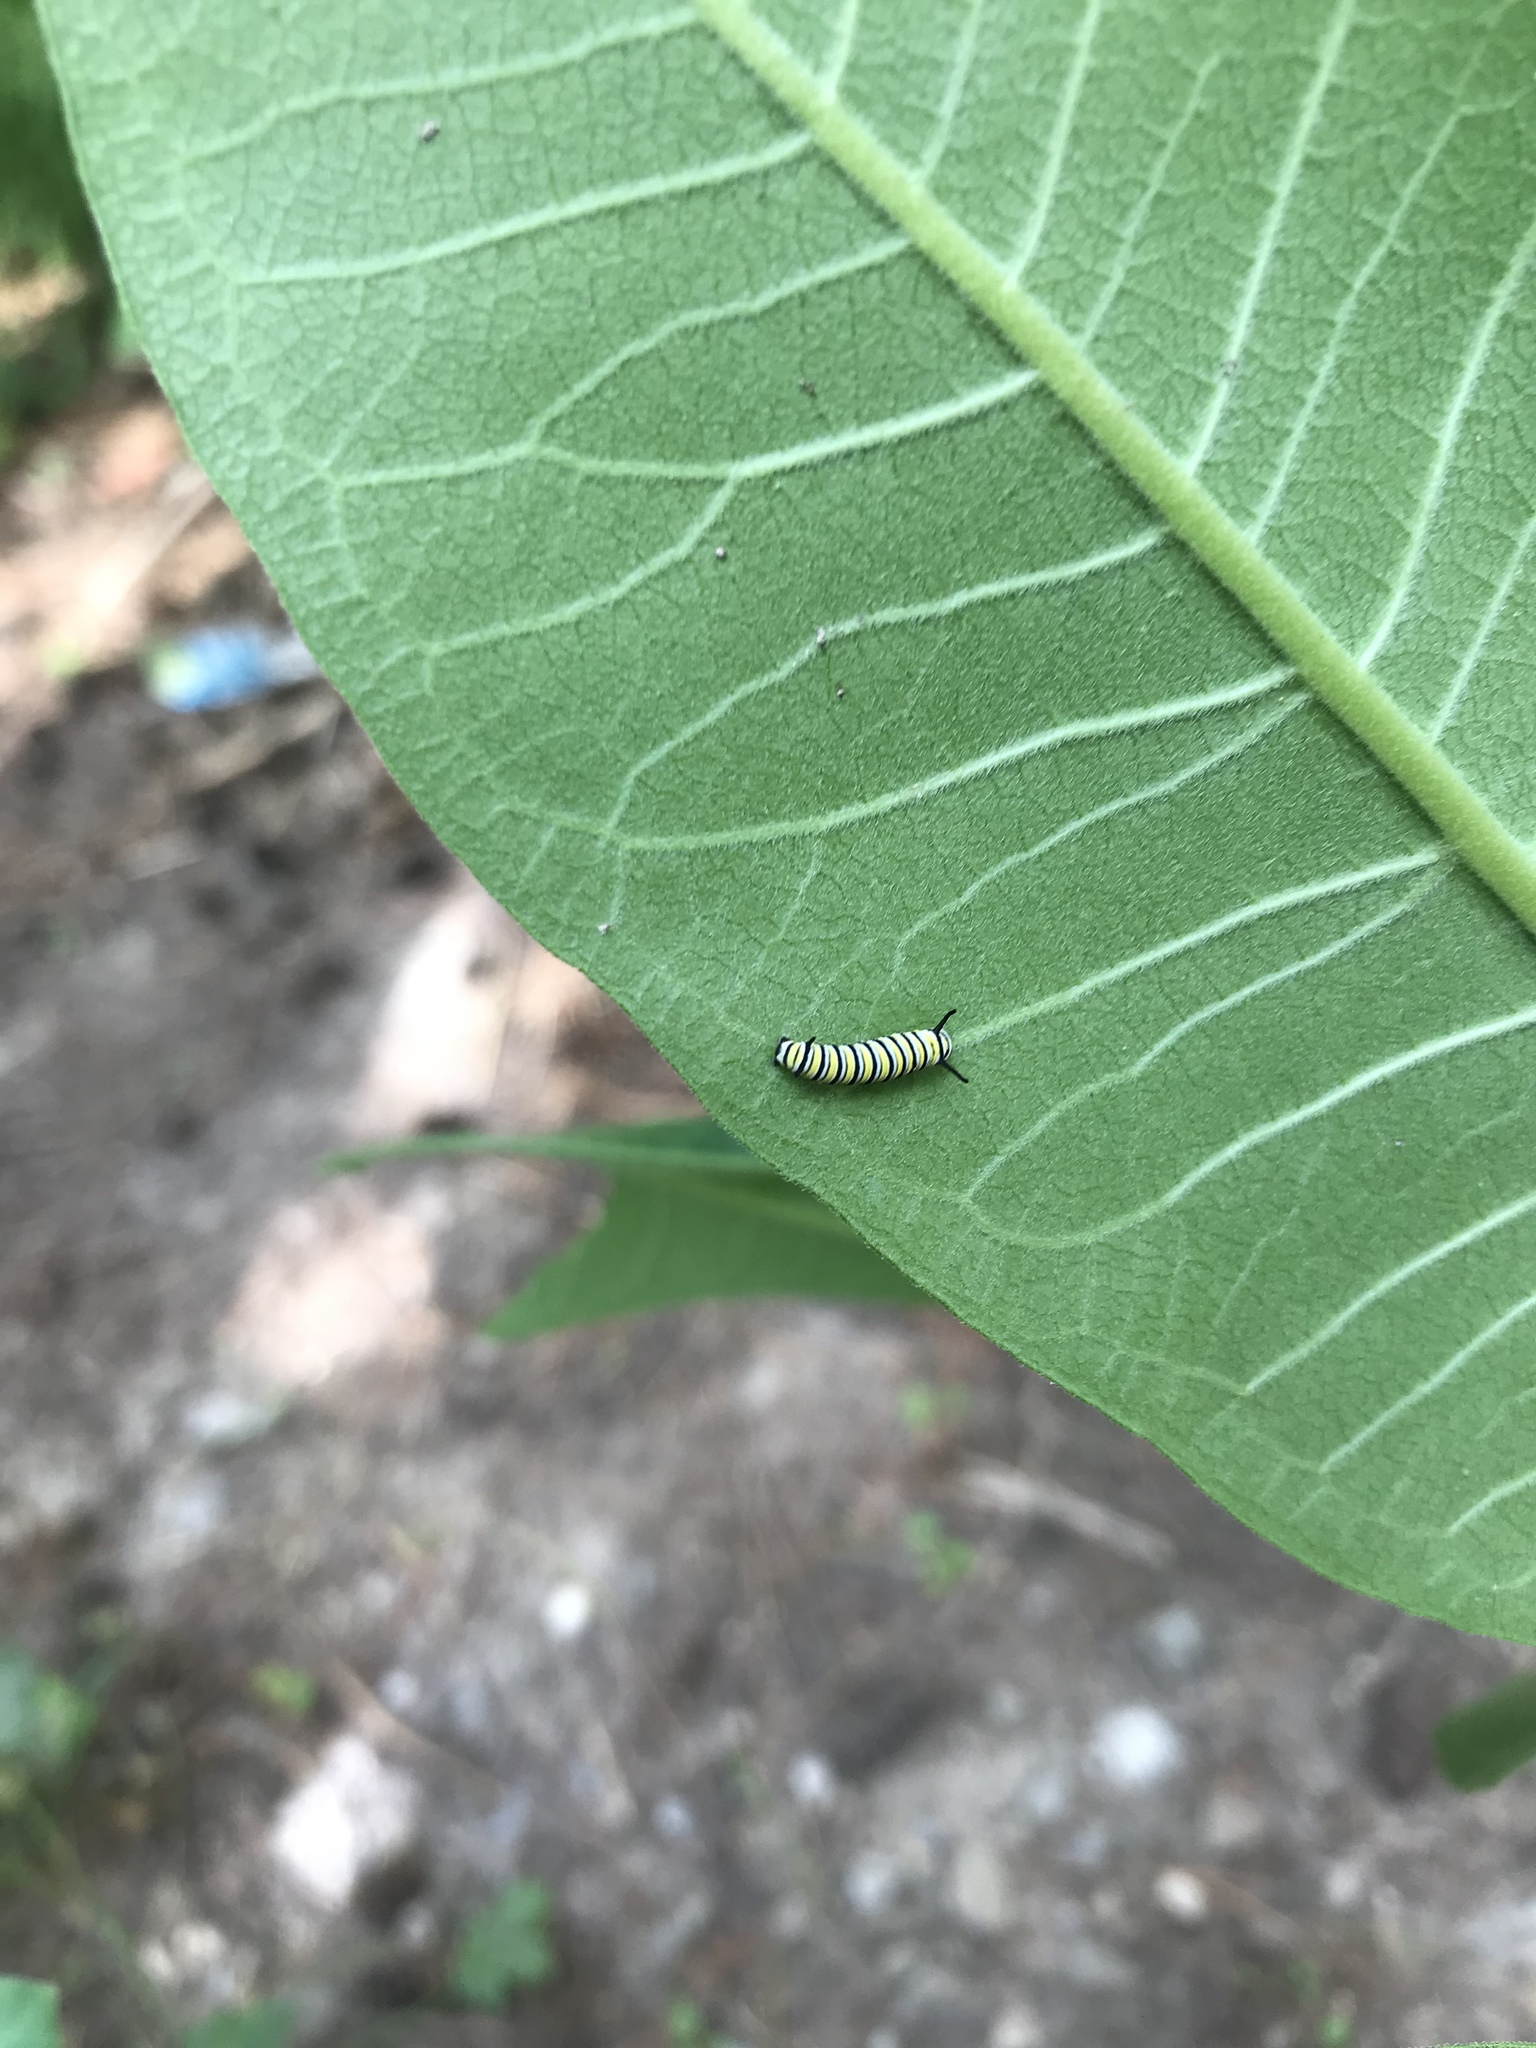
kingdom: Animalia
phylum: Arthropoda
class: Insecta
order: Lepidoptera
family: Nymphalidae
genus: Danaus
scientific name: Danaus plexippus
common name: Monarch
